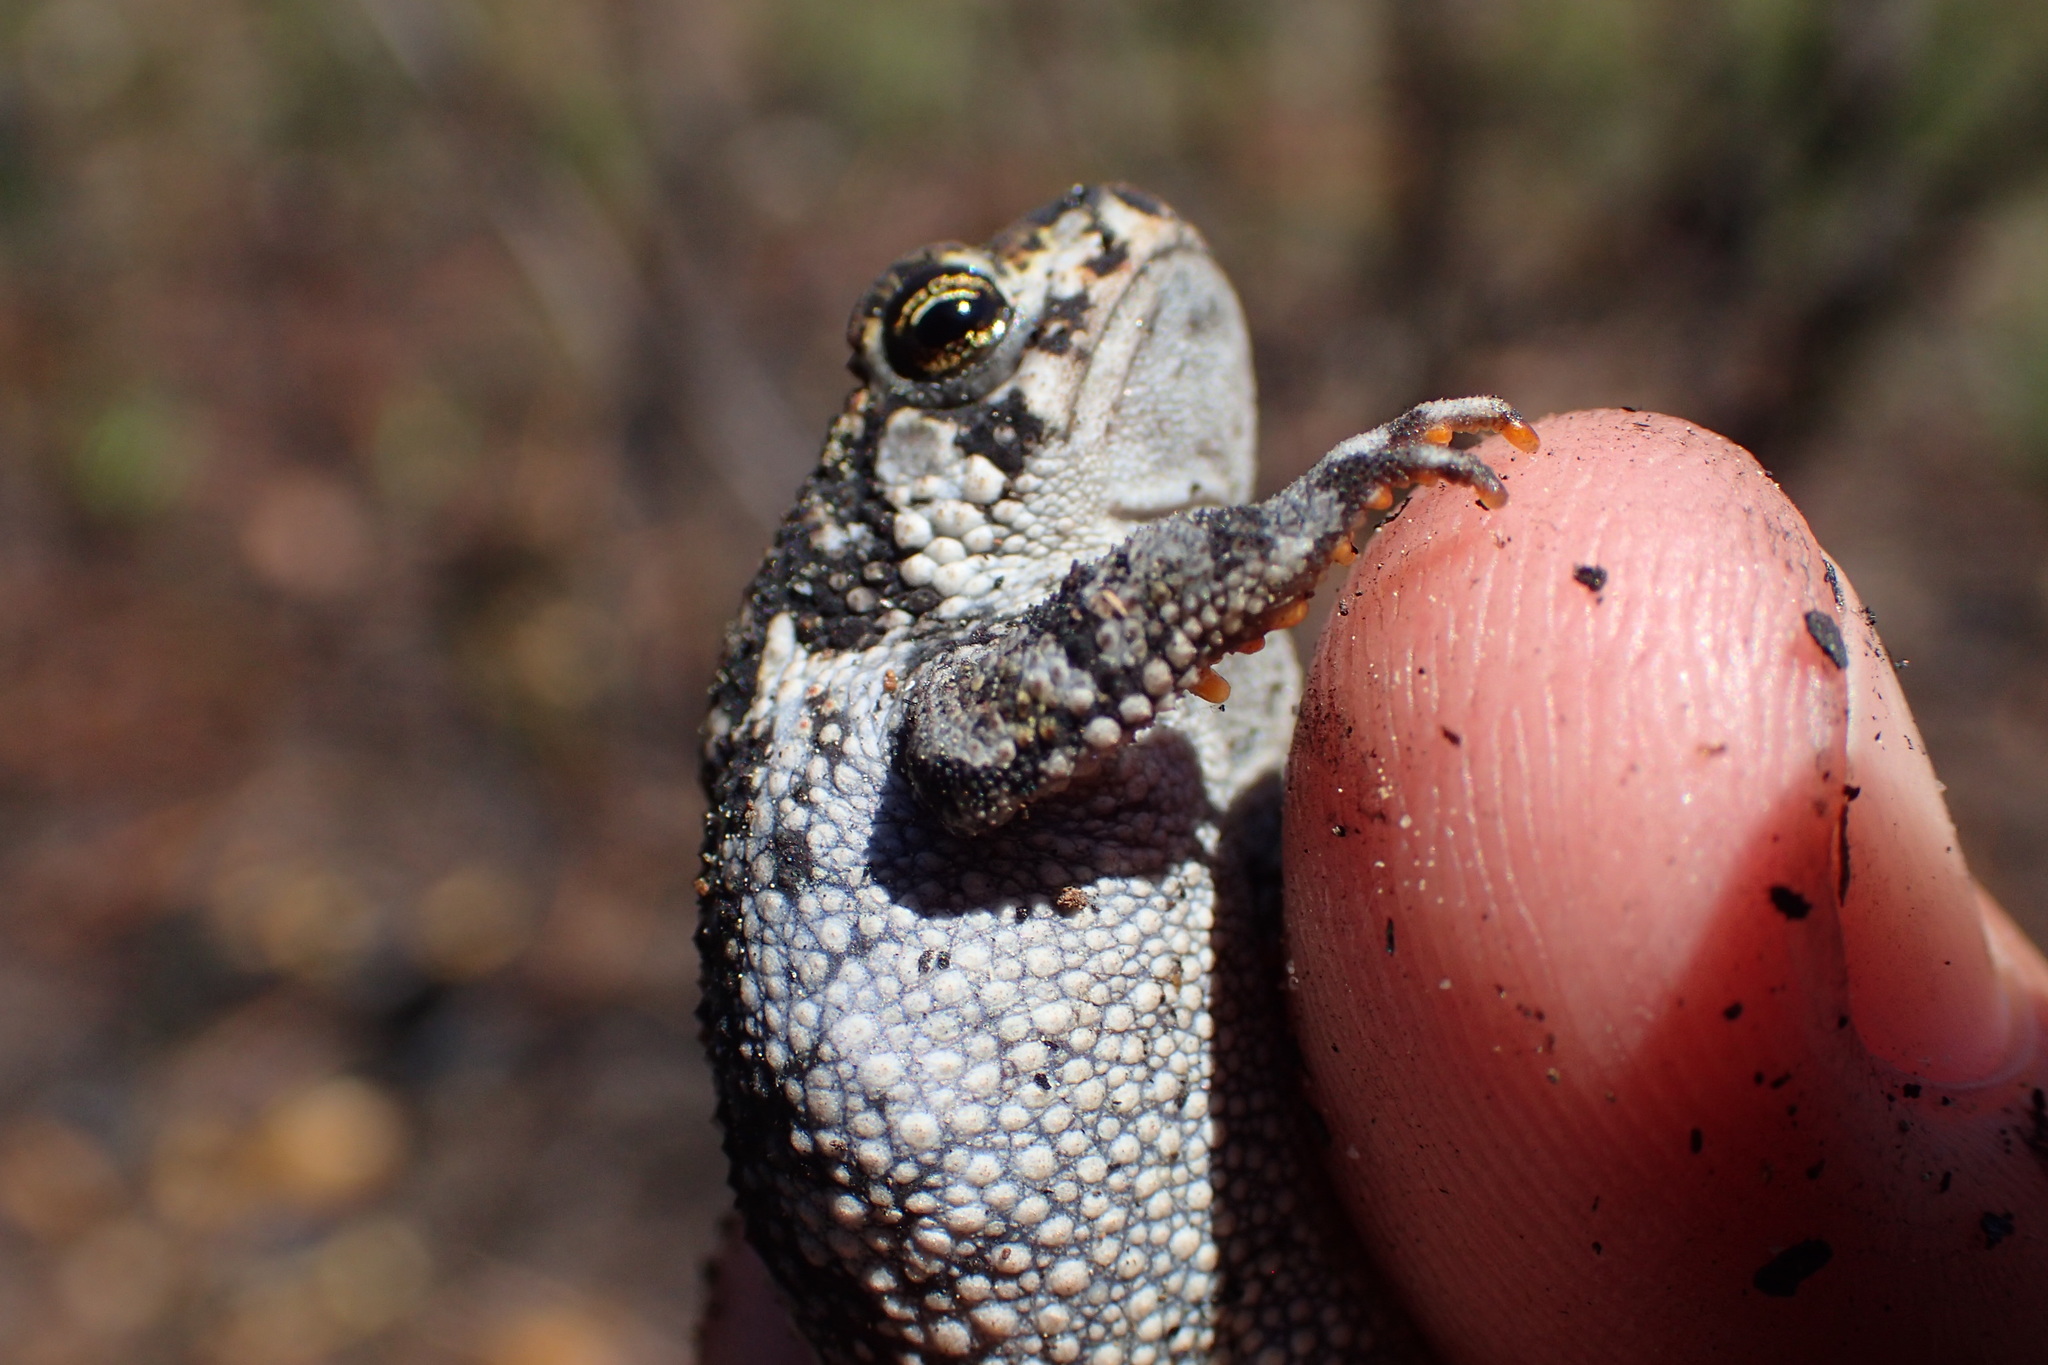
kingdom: Animalia
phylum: Chordata
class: Amphibia
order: Anura
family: Bufonidae
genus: Anaxyrus
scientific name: Anaxyrus quercicus
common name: Oak toad
